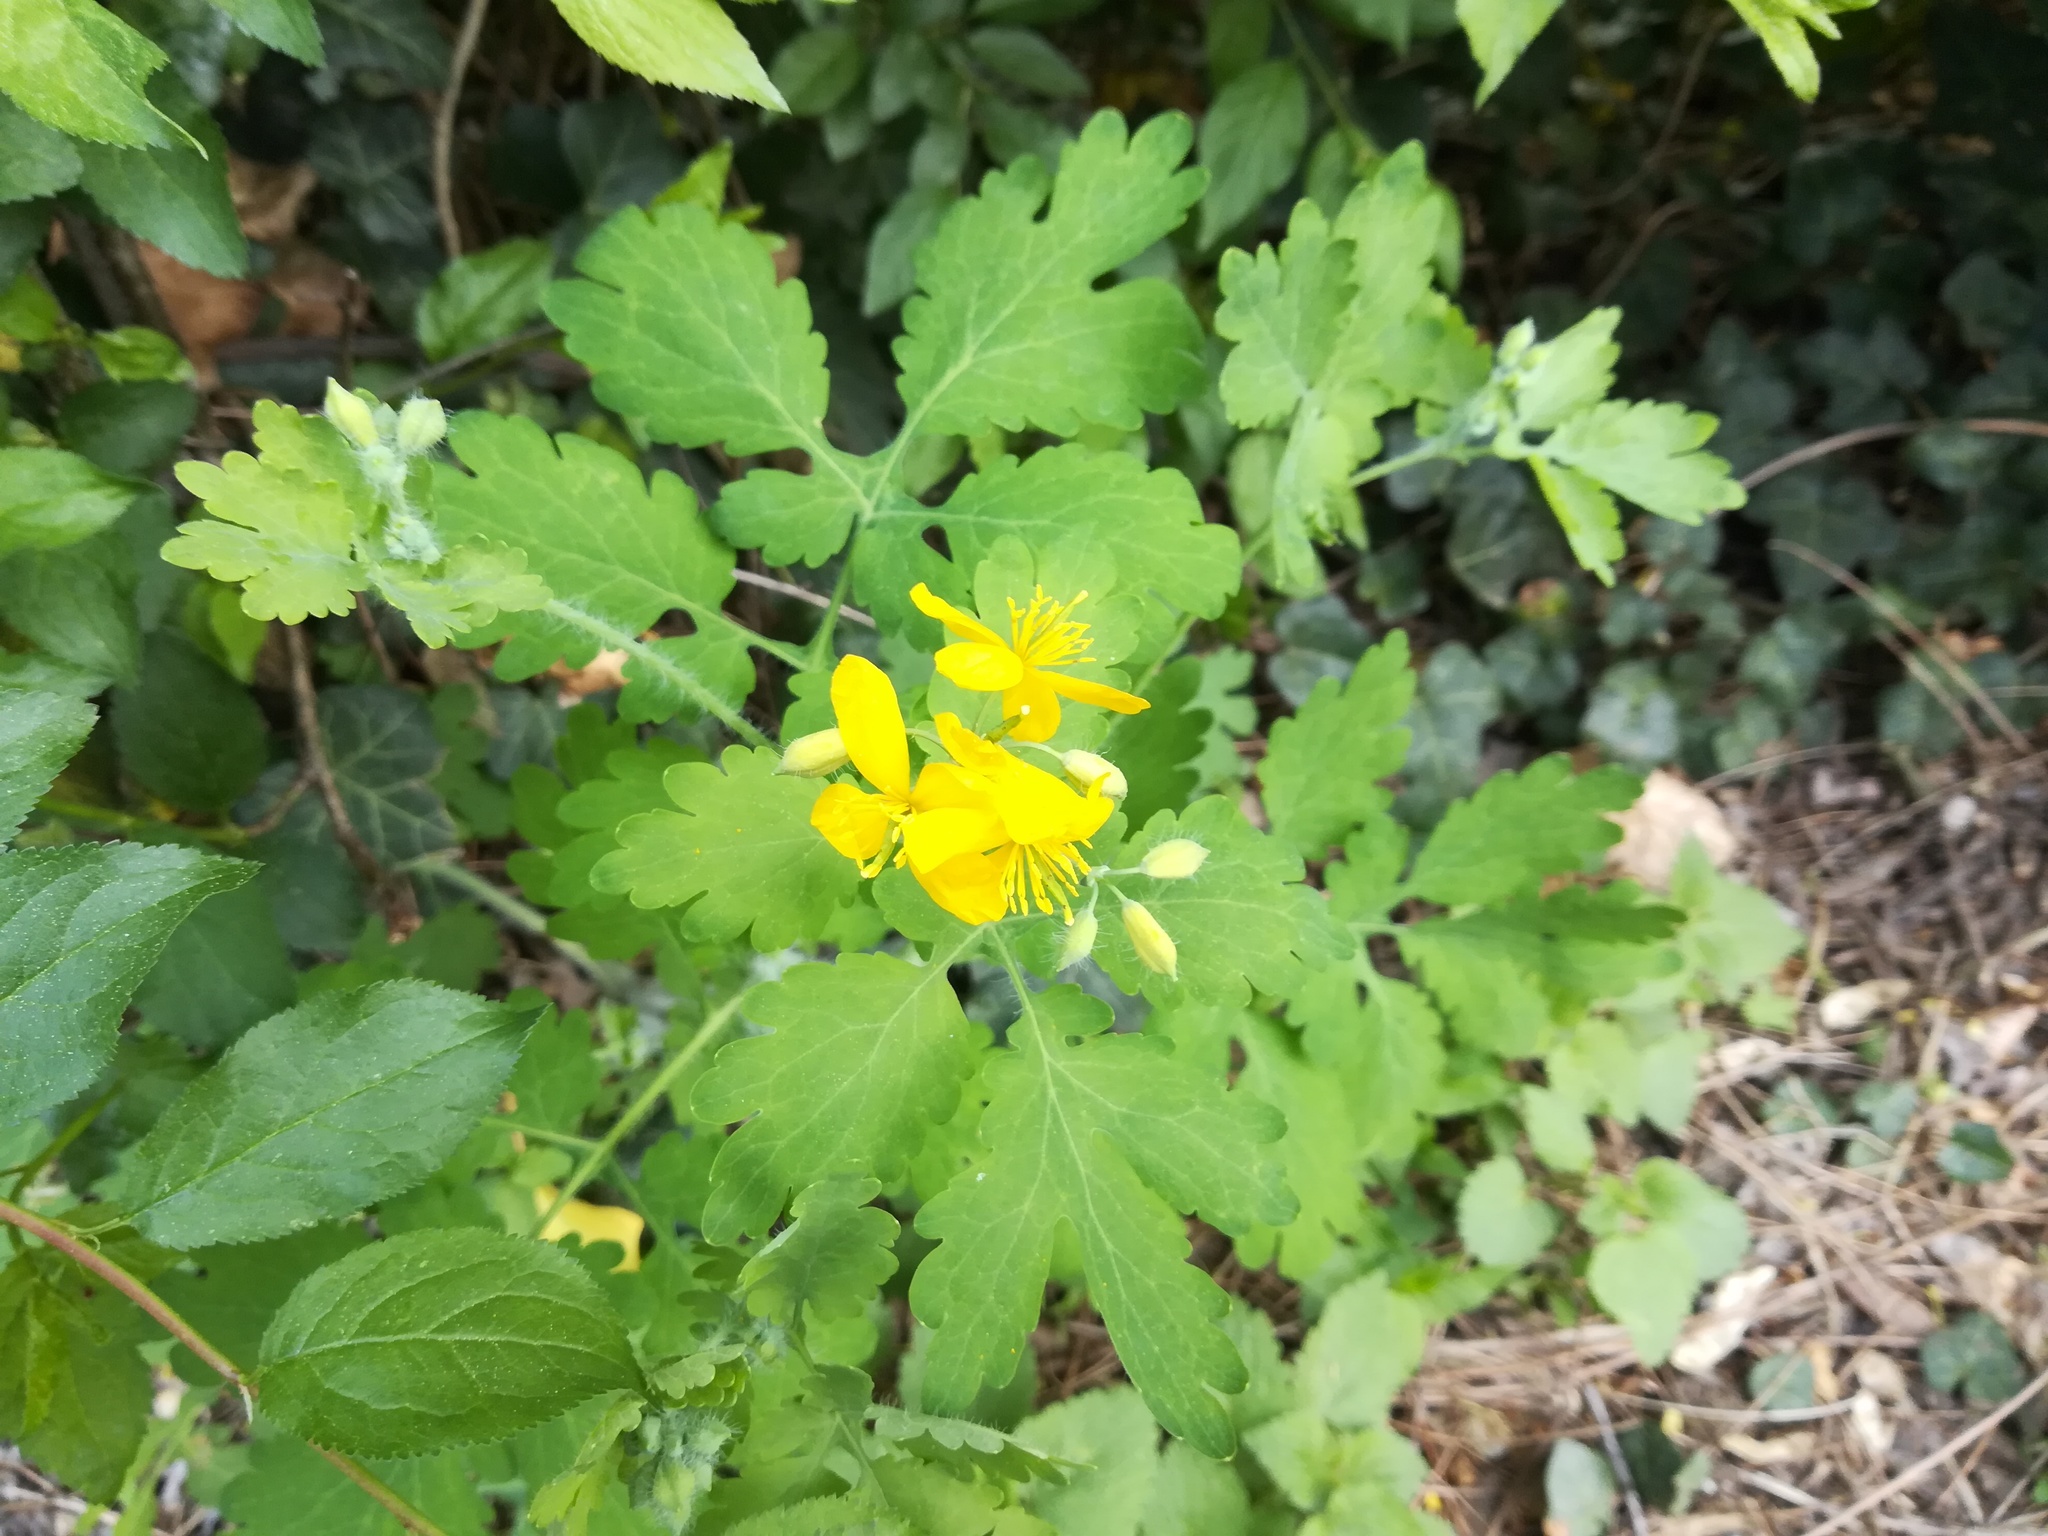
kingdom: Plantae
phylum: Tracheophyta
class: Magnoliopsida
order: Ranunculales
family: Papaveraceae
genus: Chelidonium
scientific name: Chelidonium majus
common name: Greater celandine
